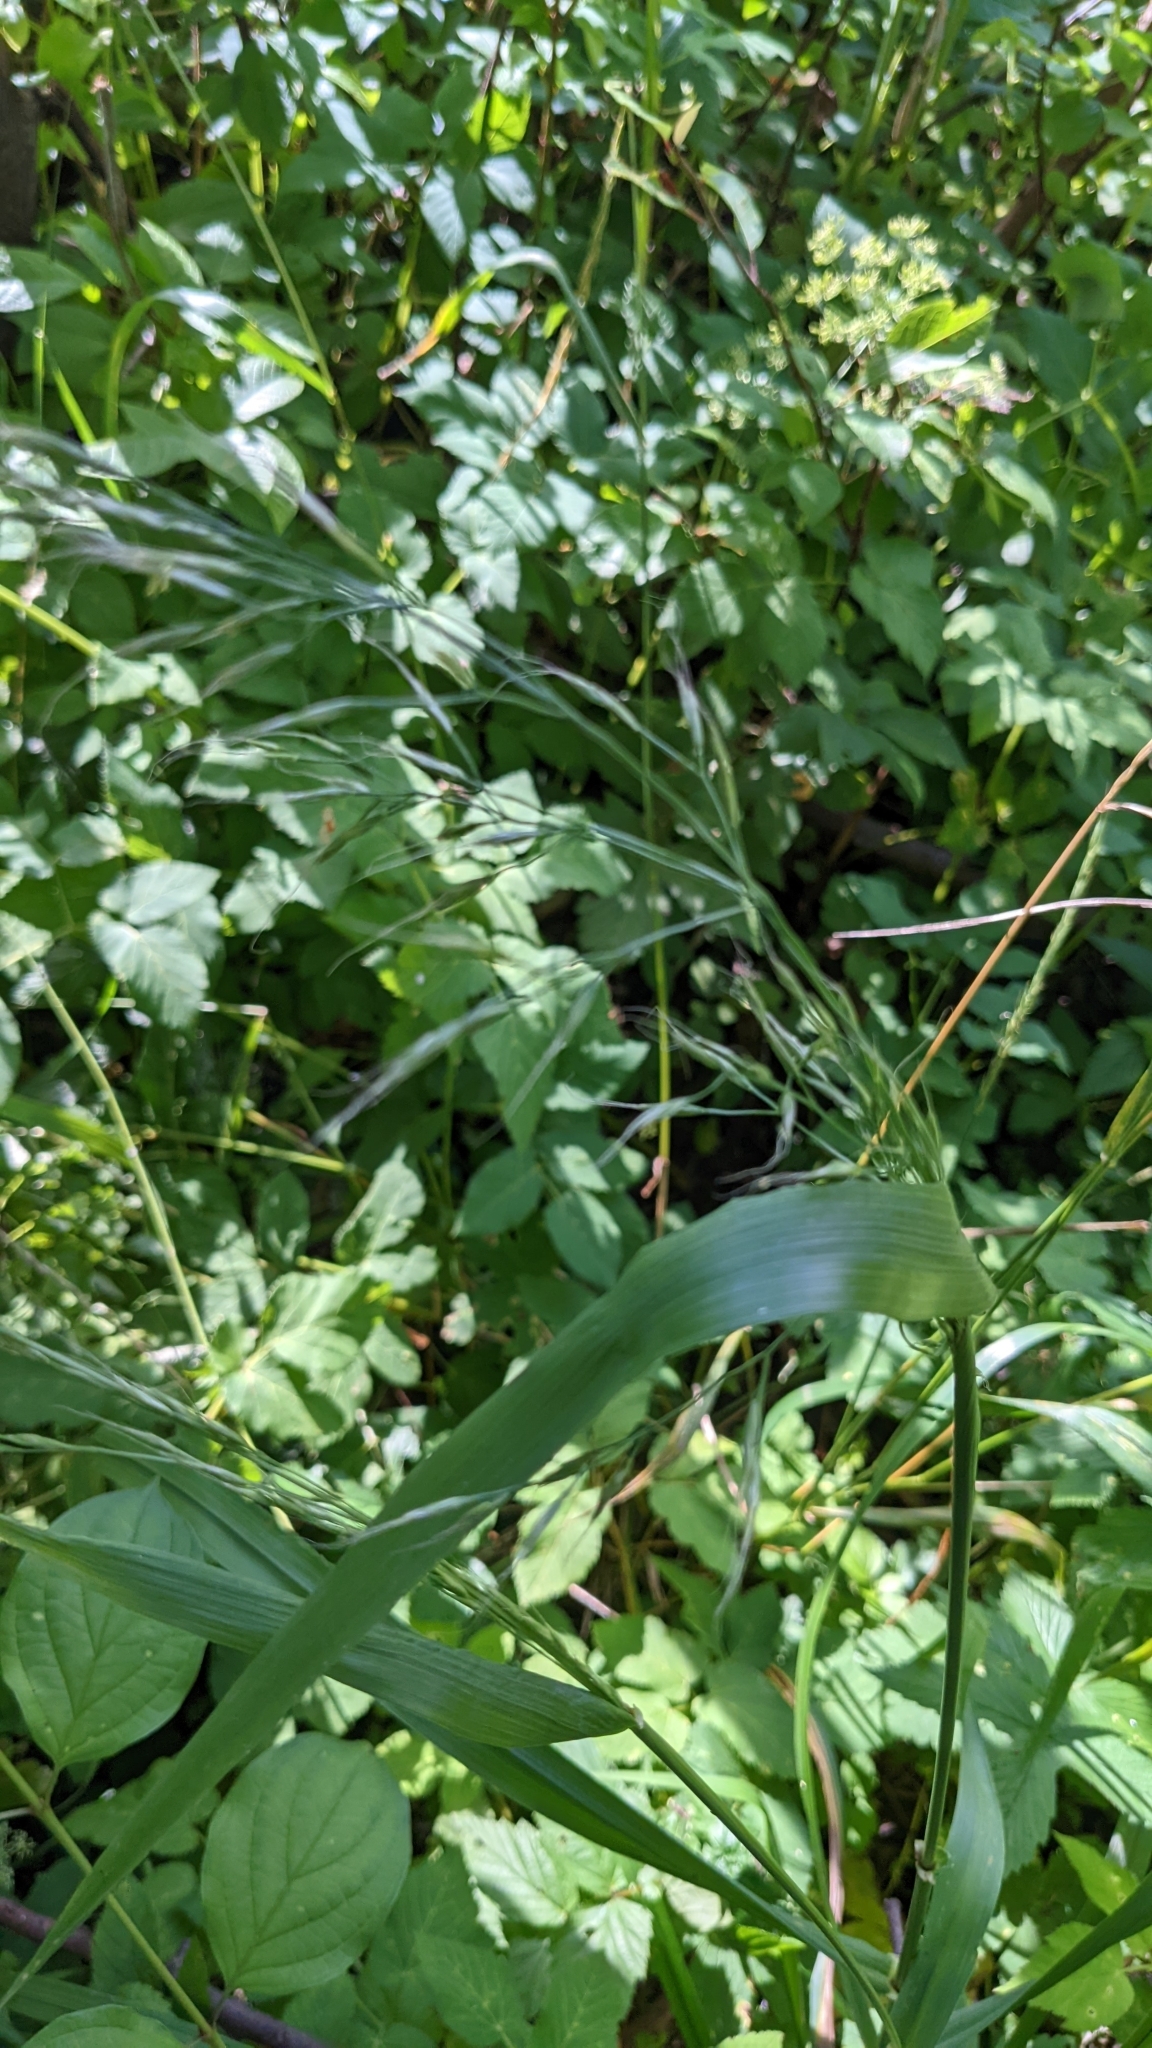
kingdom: Plantae
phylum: Tracheophyta
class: Liliopsida
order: Poales
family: Poaceae
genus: Lolium
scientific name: Lolium giganteum
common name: Giant fescue
